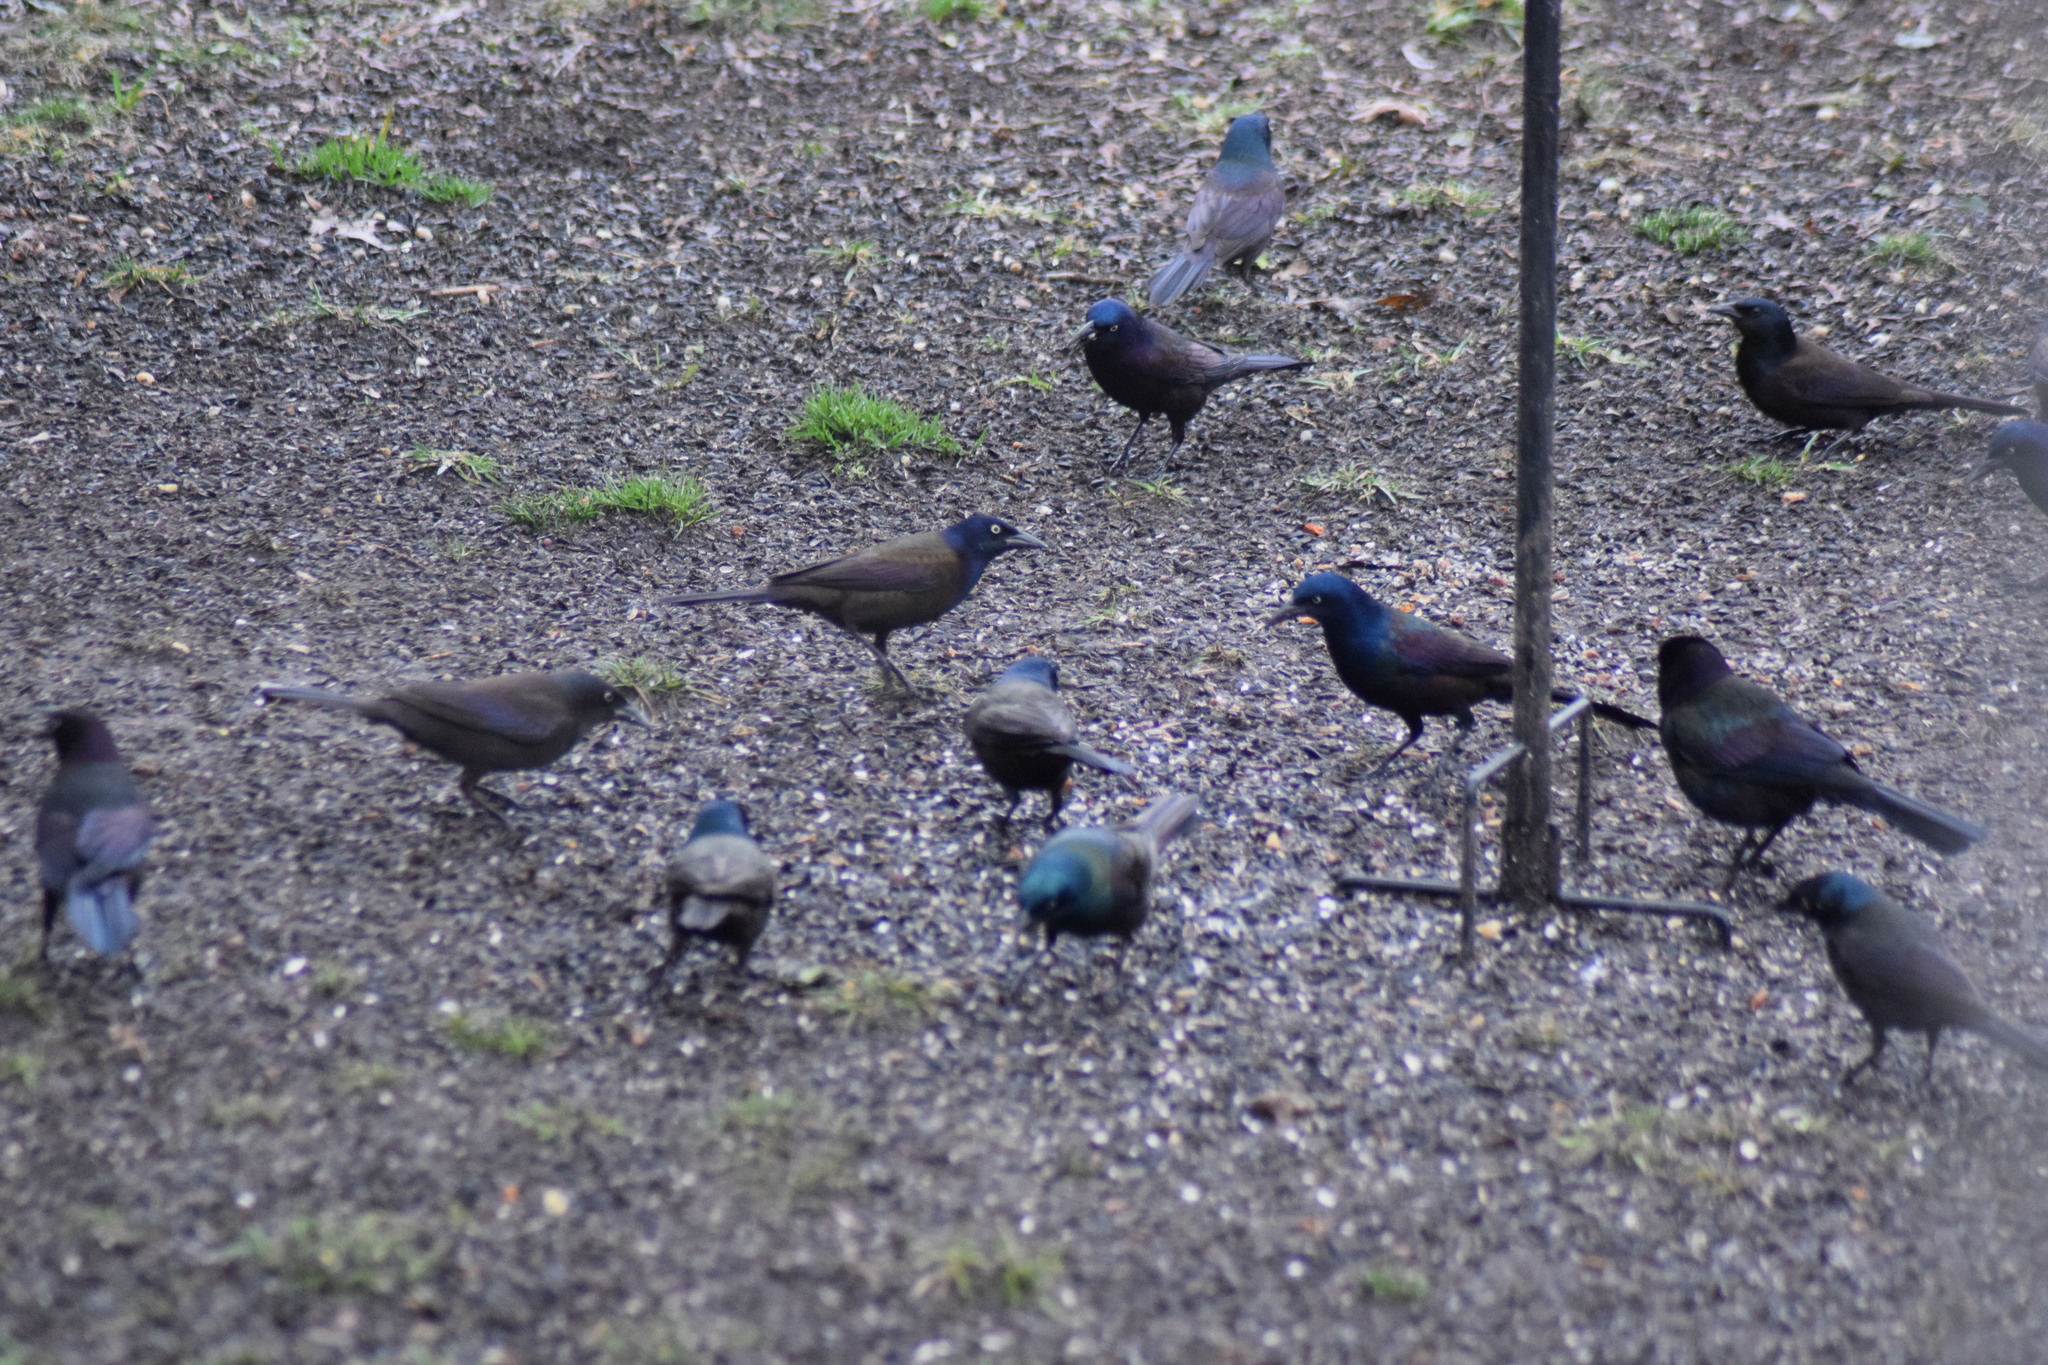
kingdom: Animalia
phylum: Chordata
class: Aves
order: Passeriformes
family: Icteridae
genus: Quiscalus
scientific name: Quiscalus quiscula
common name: Common grackle
